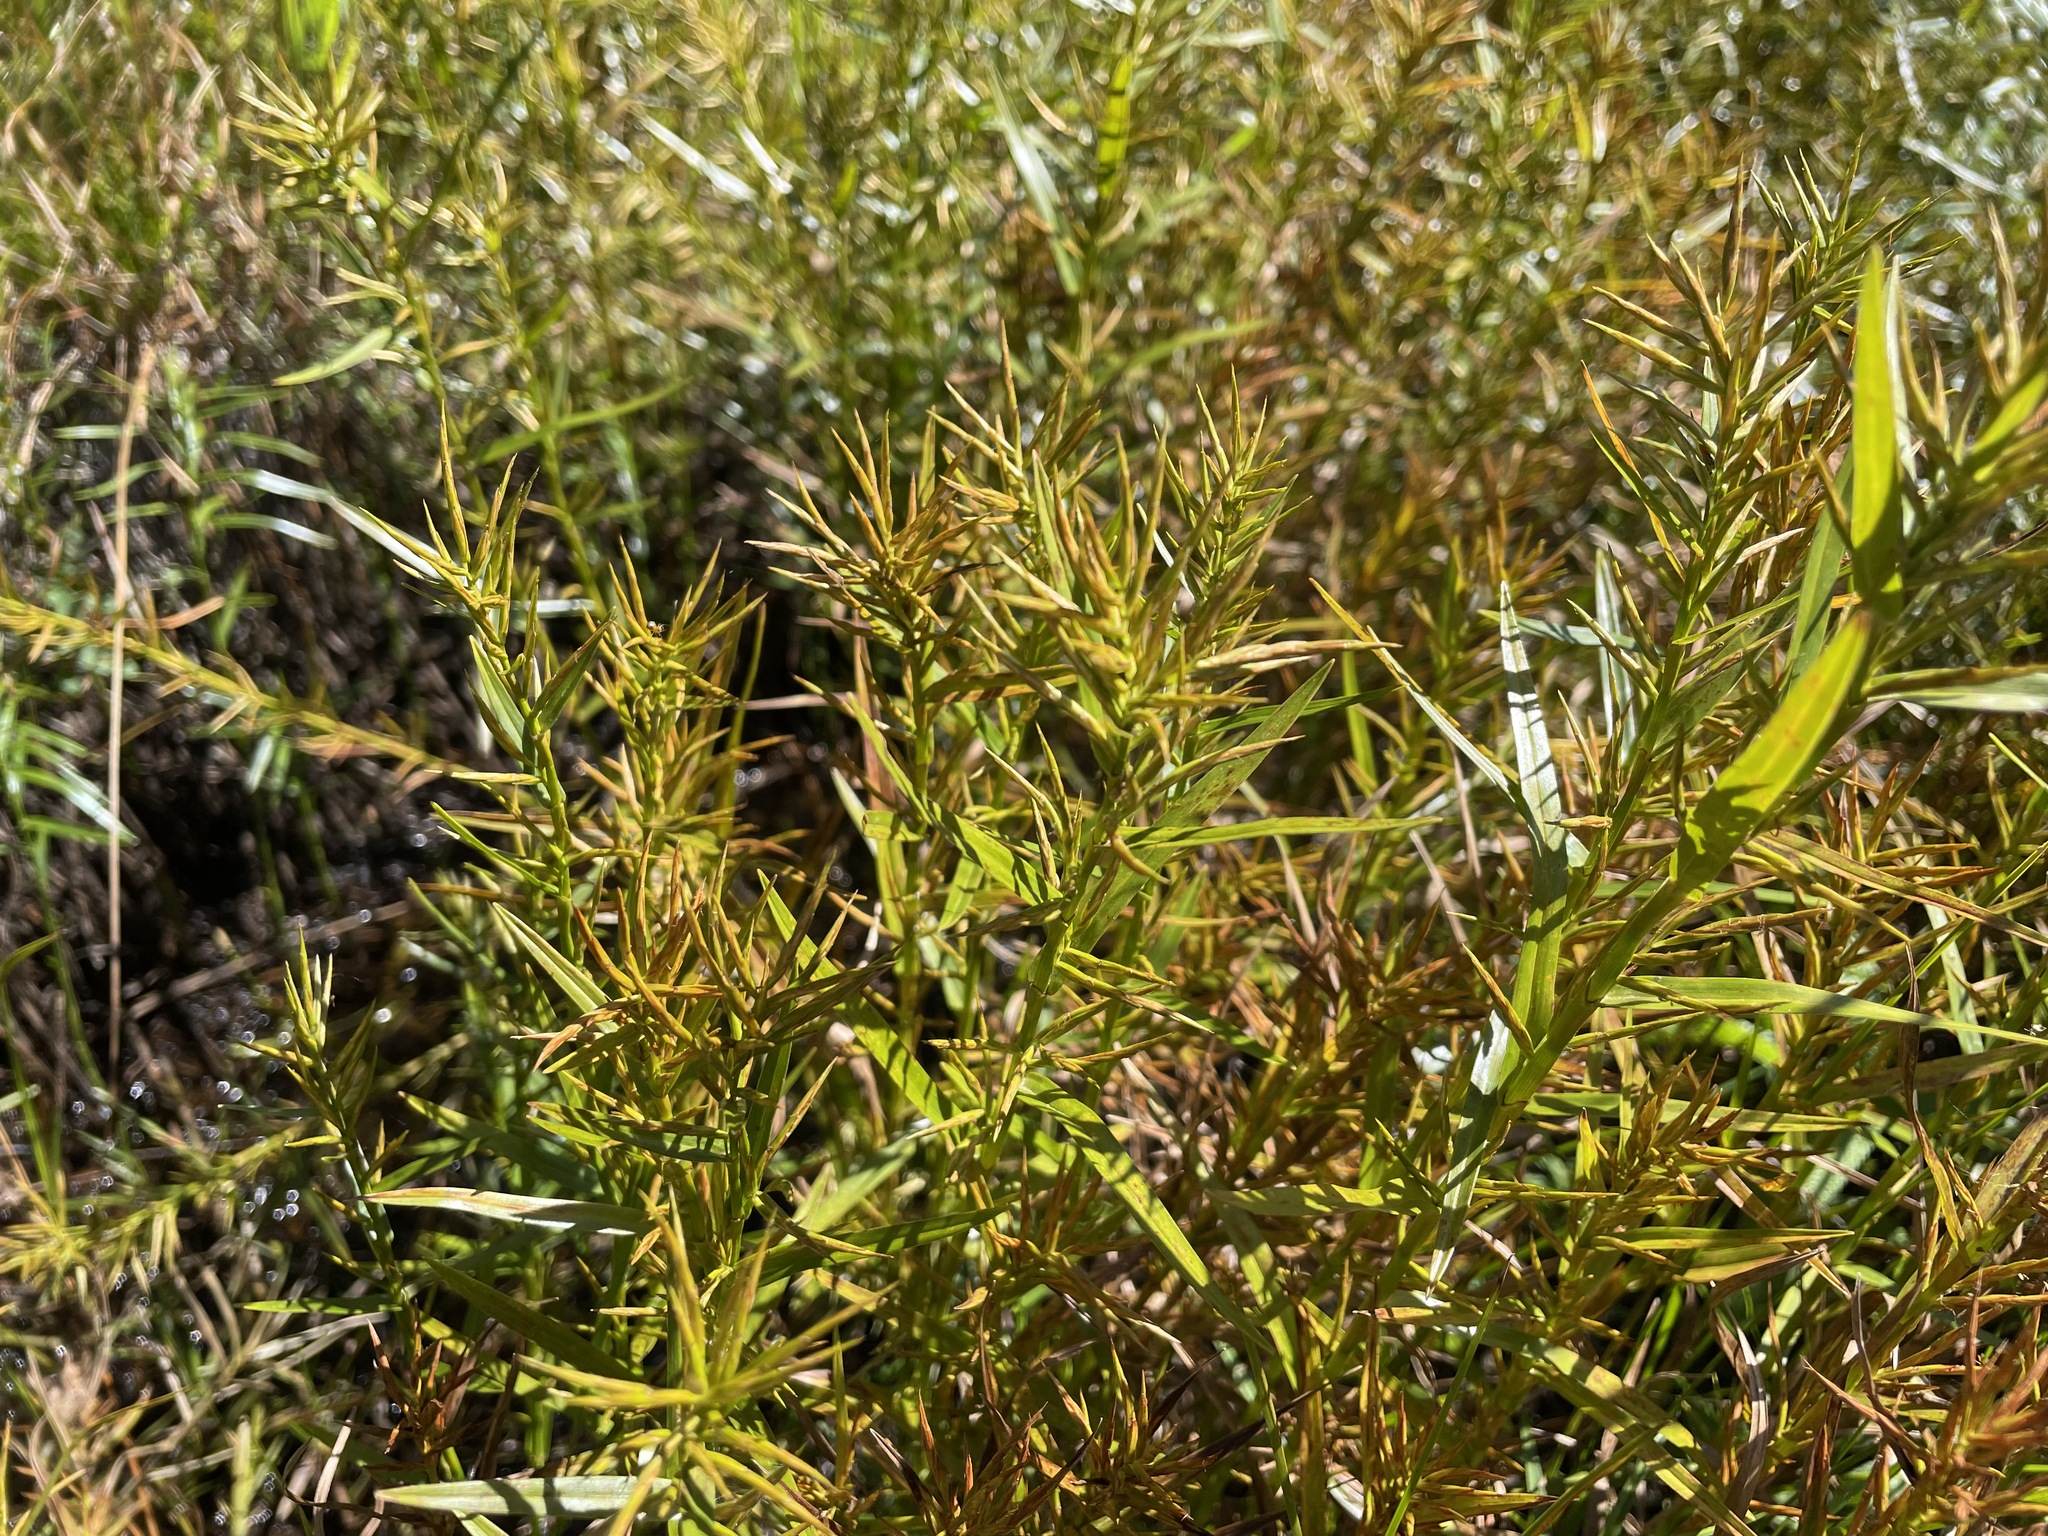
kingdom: Plantae
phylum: Tracheophyta
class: Liliopsida
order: Poales
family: Cyperaceae
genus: Dulichium
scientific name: Dulichium arundinaceum
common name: Three-way sedge
